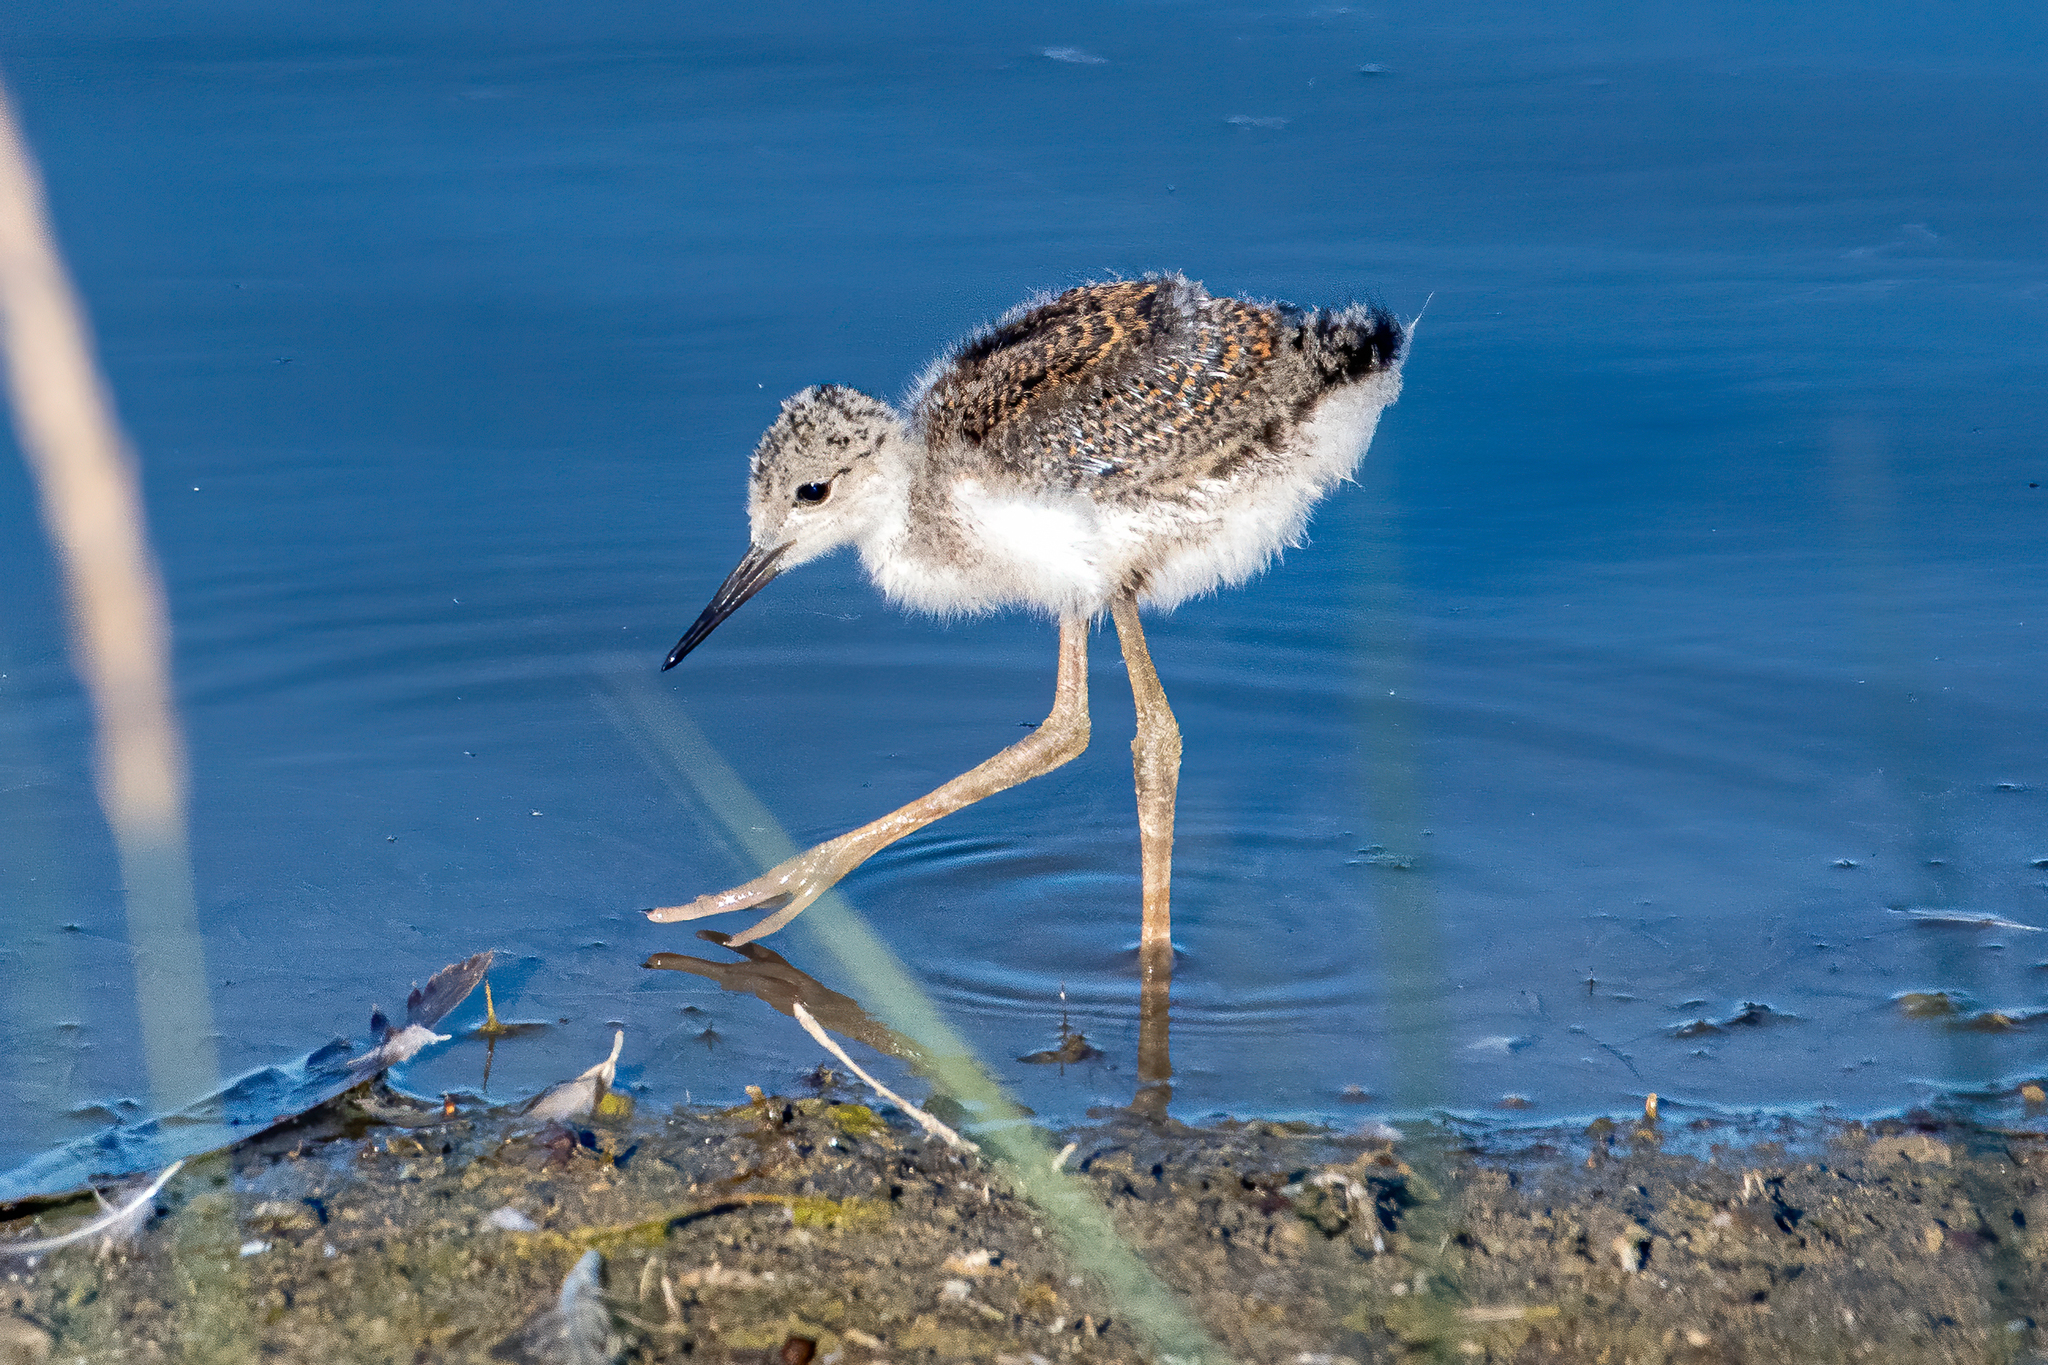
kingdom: Animalia
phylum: Chordata
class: Aves
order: Charadriiformes
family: Recurvirostridae
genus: Himantopus
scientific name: Himantopus mexicanus
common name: Black-necked stilt
